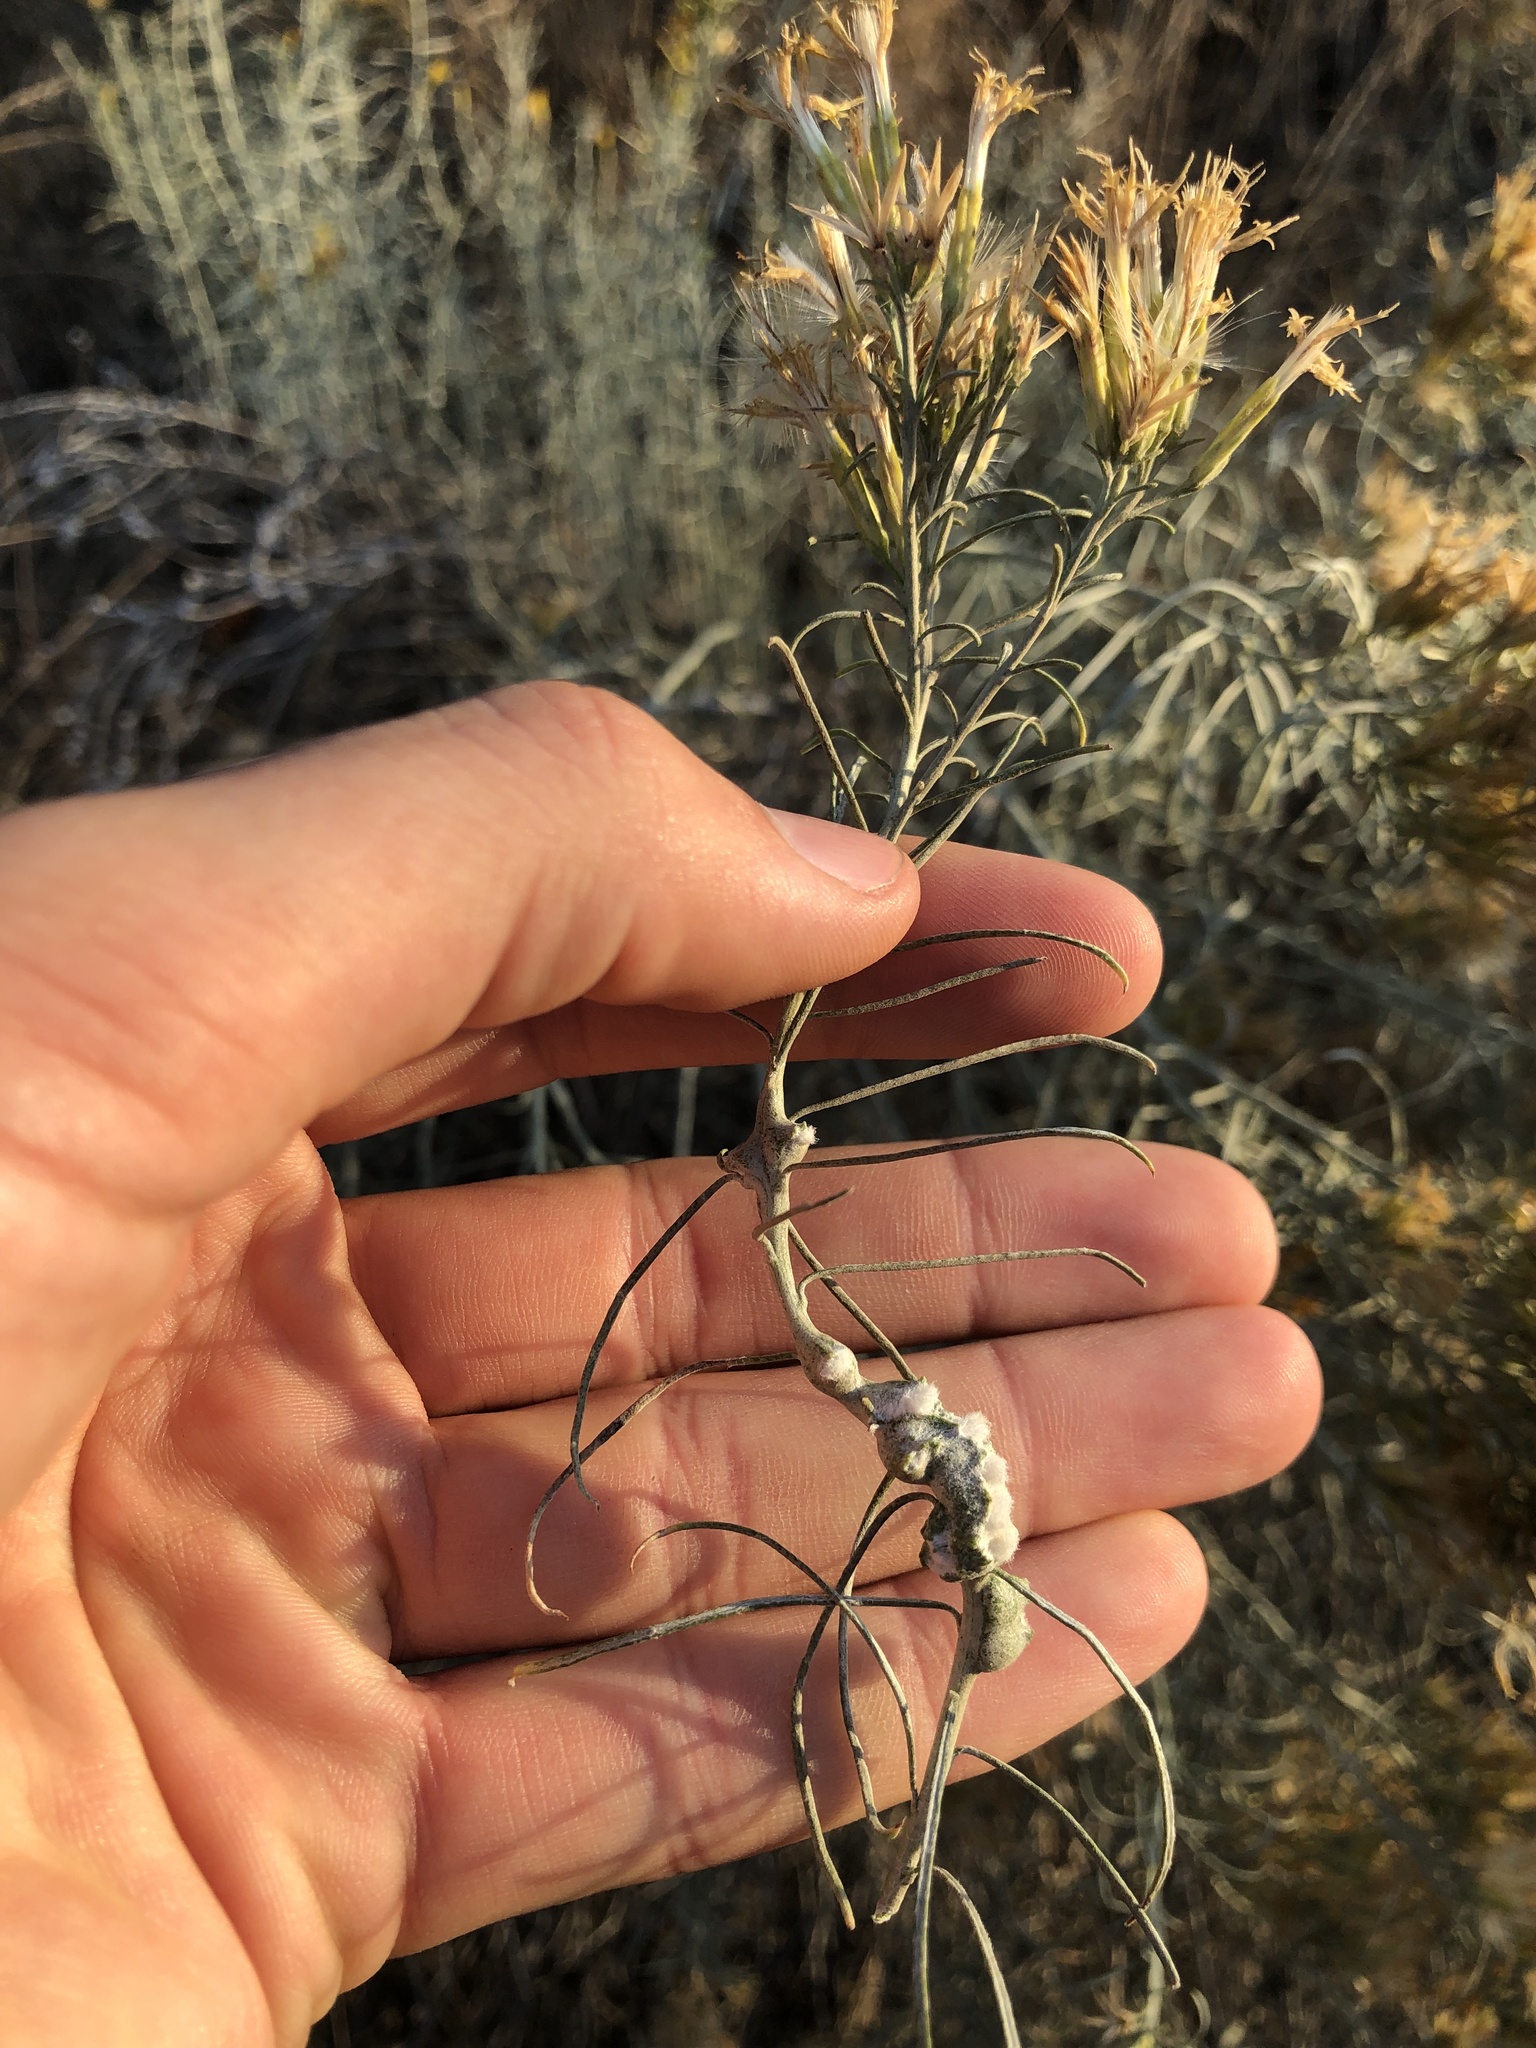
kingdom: Animalia
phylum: Arthropoda
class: Insecta
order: Diptera
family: Cecidomyiidae
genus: Rhopalomyia
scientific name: Rhopalomyia chrysothamni
